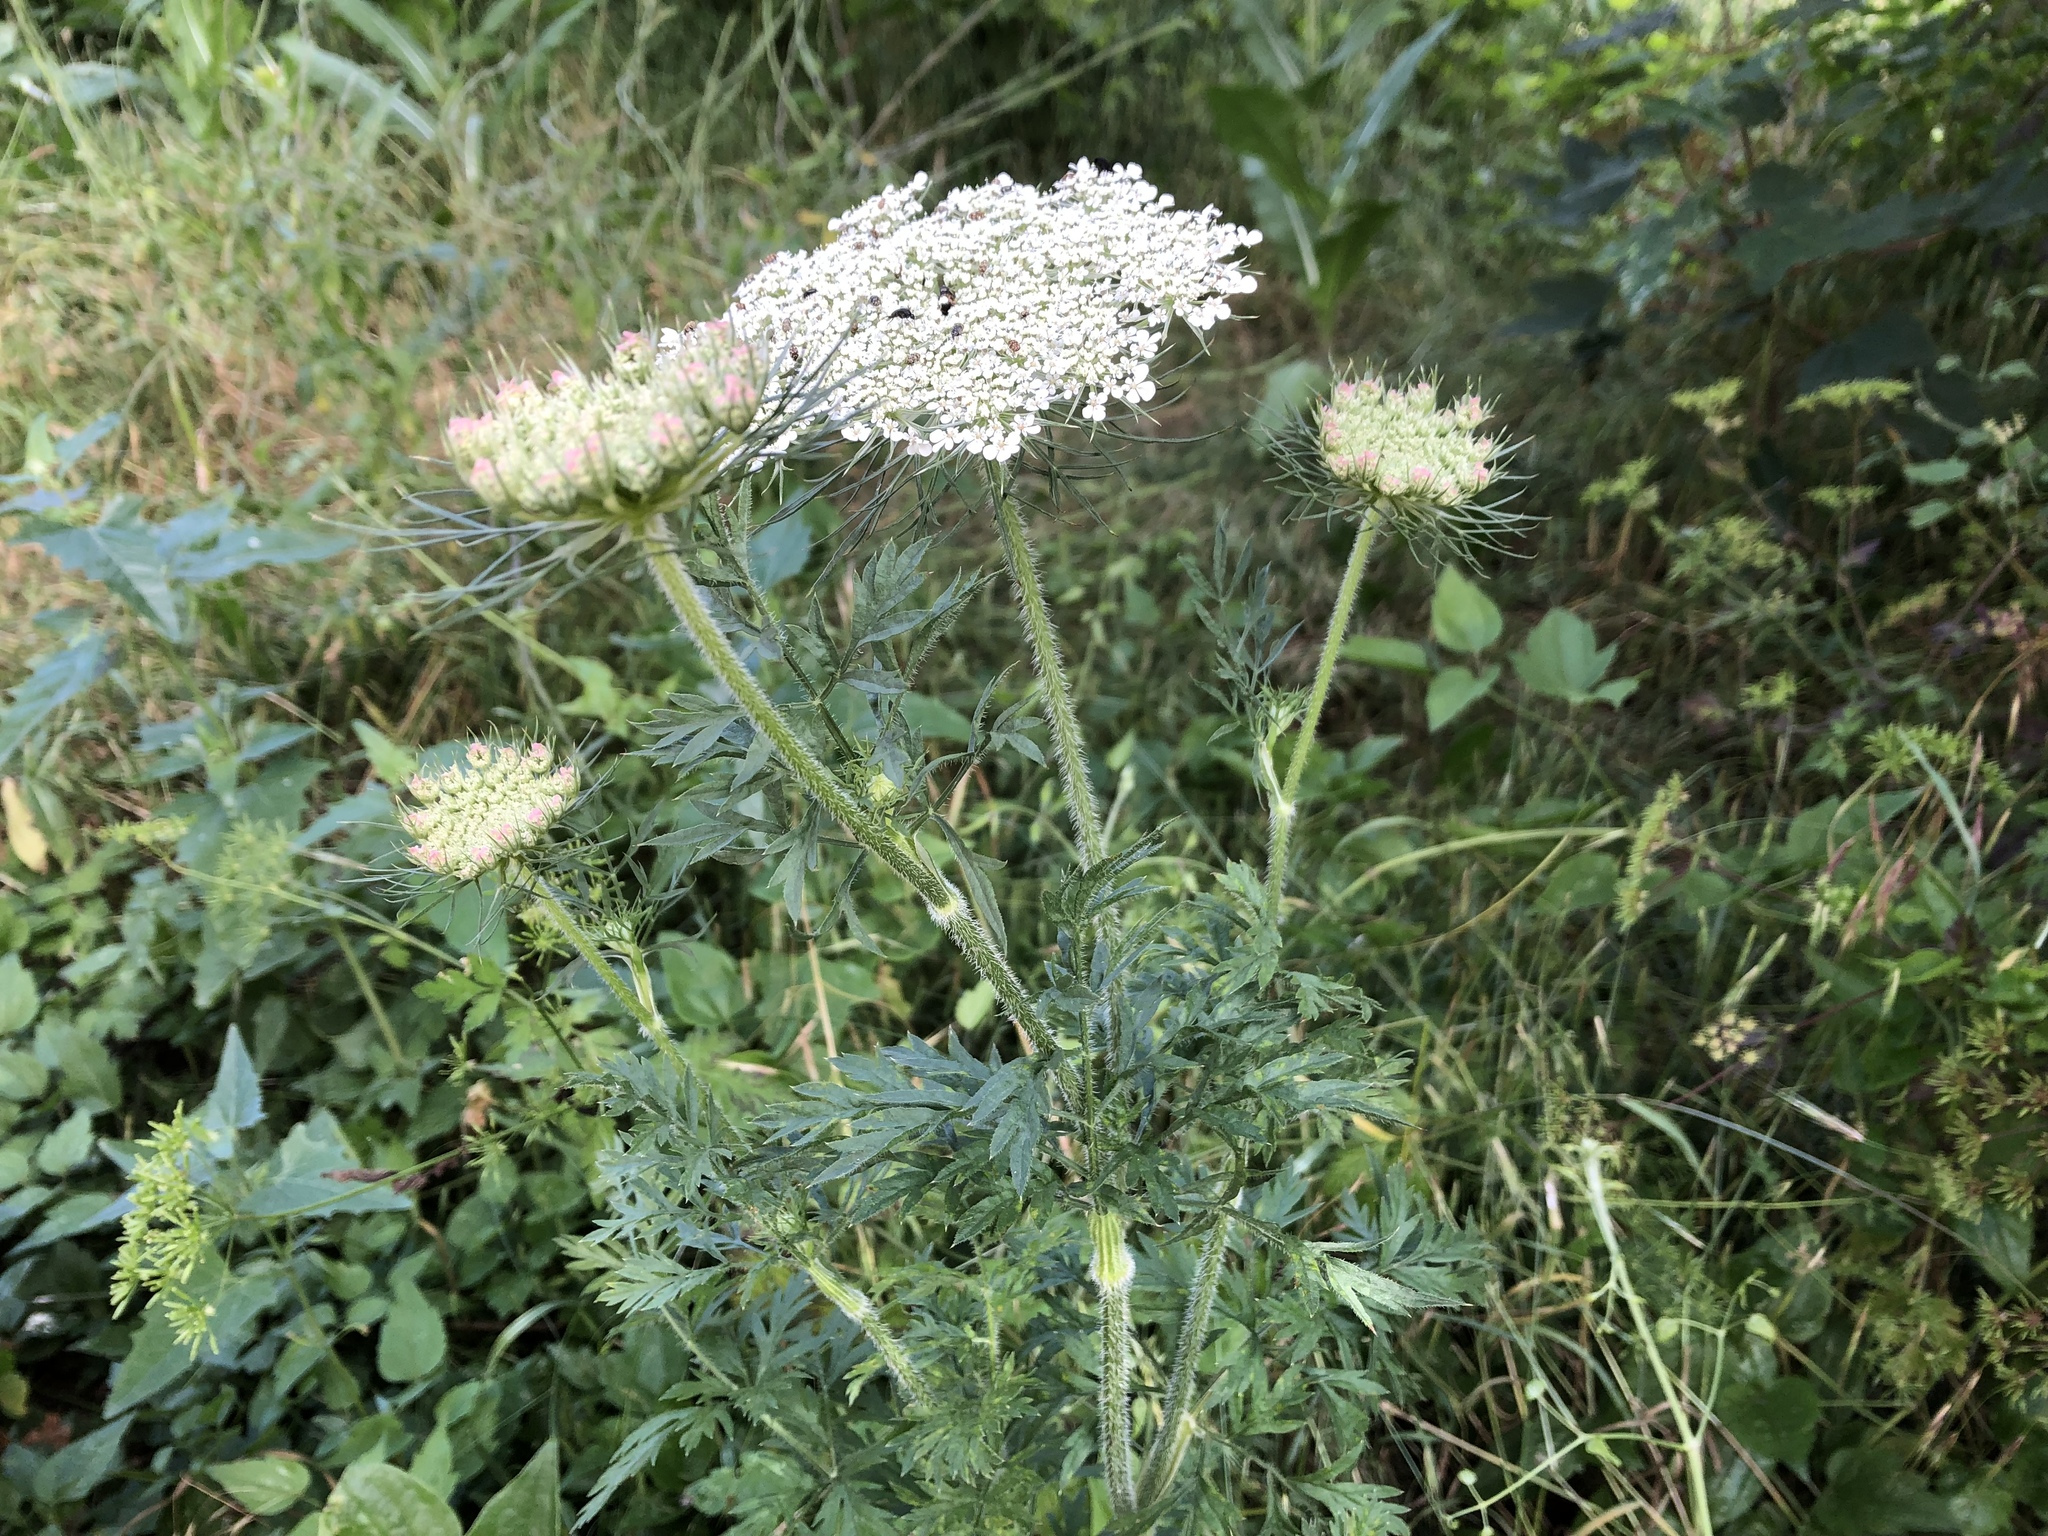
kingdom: Plantae
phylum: Tracheophyta
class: Magnoliopsida
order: Apiales
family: Apiaceae
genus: Daucus
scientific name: Daucus carota
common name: Wild carrot
